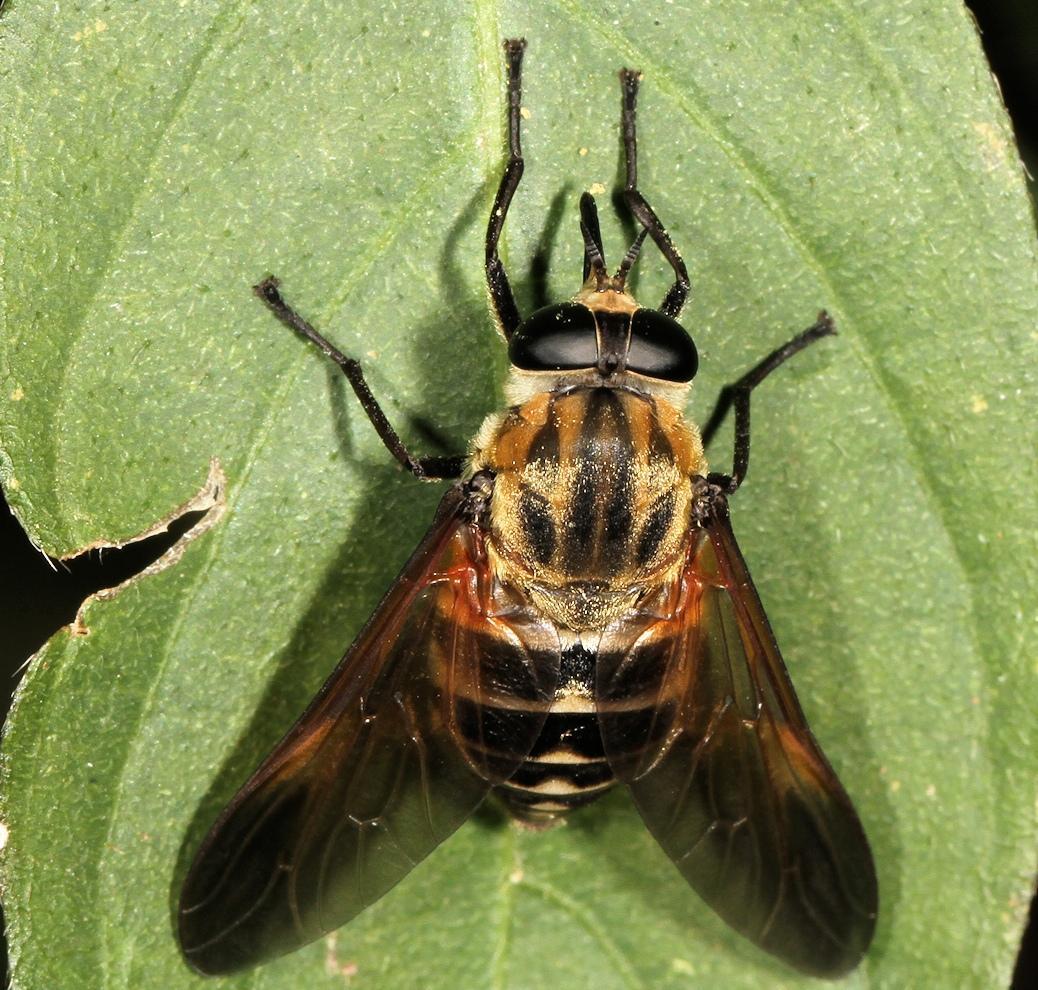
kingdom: Animalia
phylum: Arthropoda
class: Insecta
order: Diptera
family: Tabanidae
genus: Philoliche
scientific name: Philoliche subfascia
